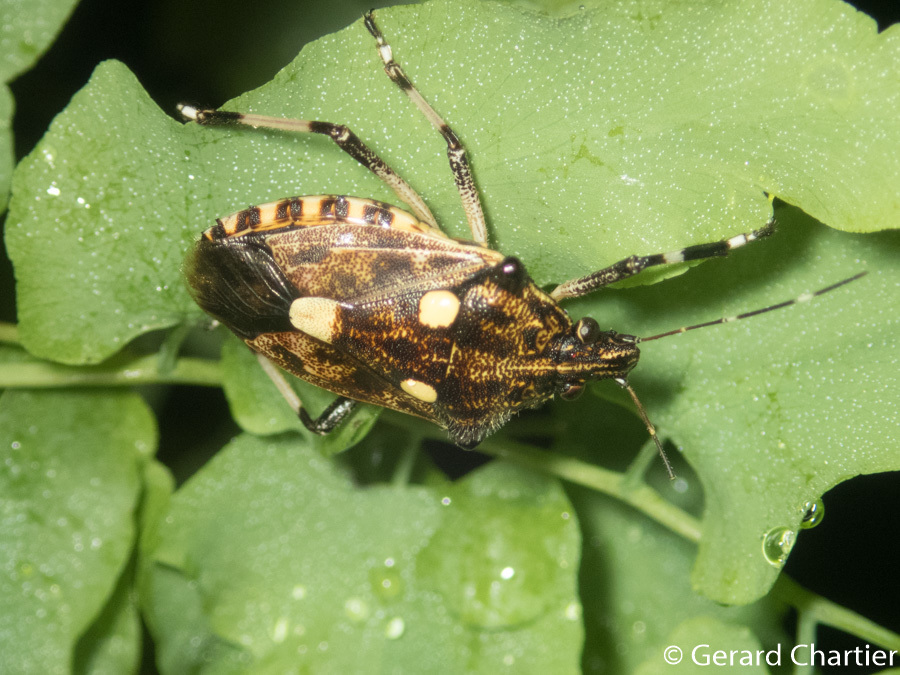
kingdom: Animalia
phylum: Arthropoda
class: Insecta
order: Hemiptera
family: Pentatomidae
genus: Dalpada
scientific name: Dalpada oculata
